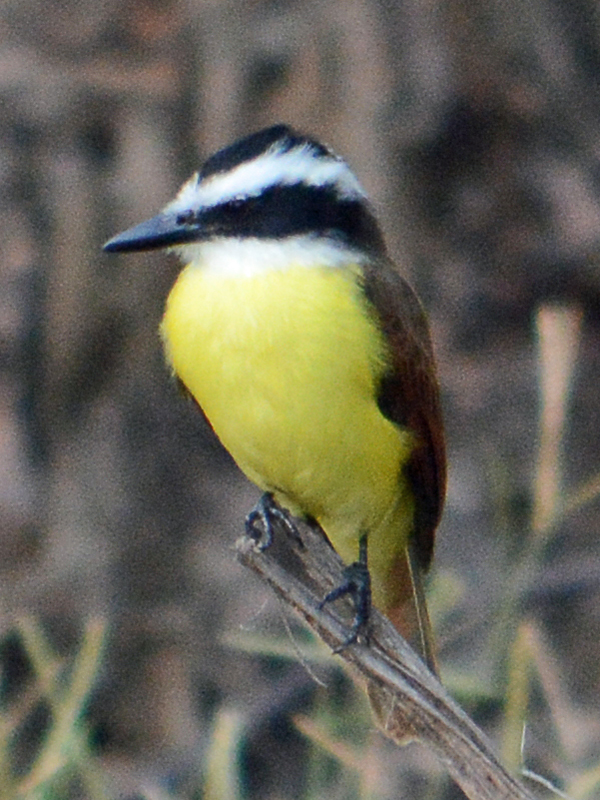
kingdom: Animalia
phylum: Chordata
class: Aves
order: Passeriformes
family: Tyrannidae
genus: Pitangus
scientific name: Pitangus sulphuratus
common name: Great kiskadee
